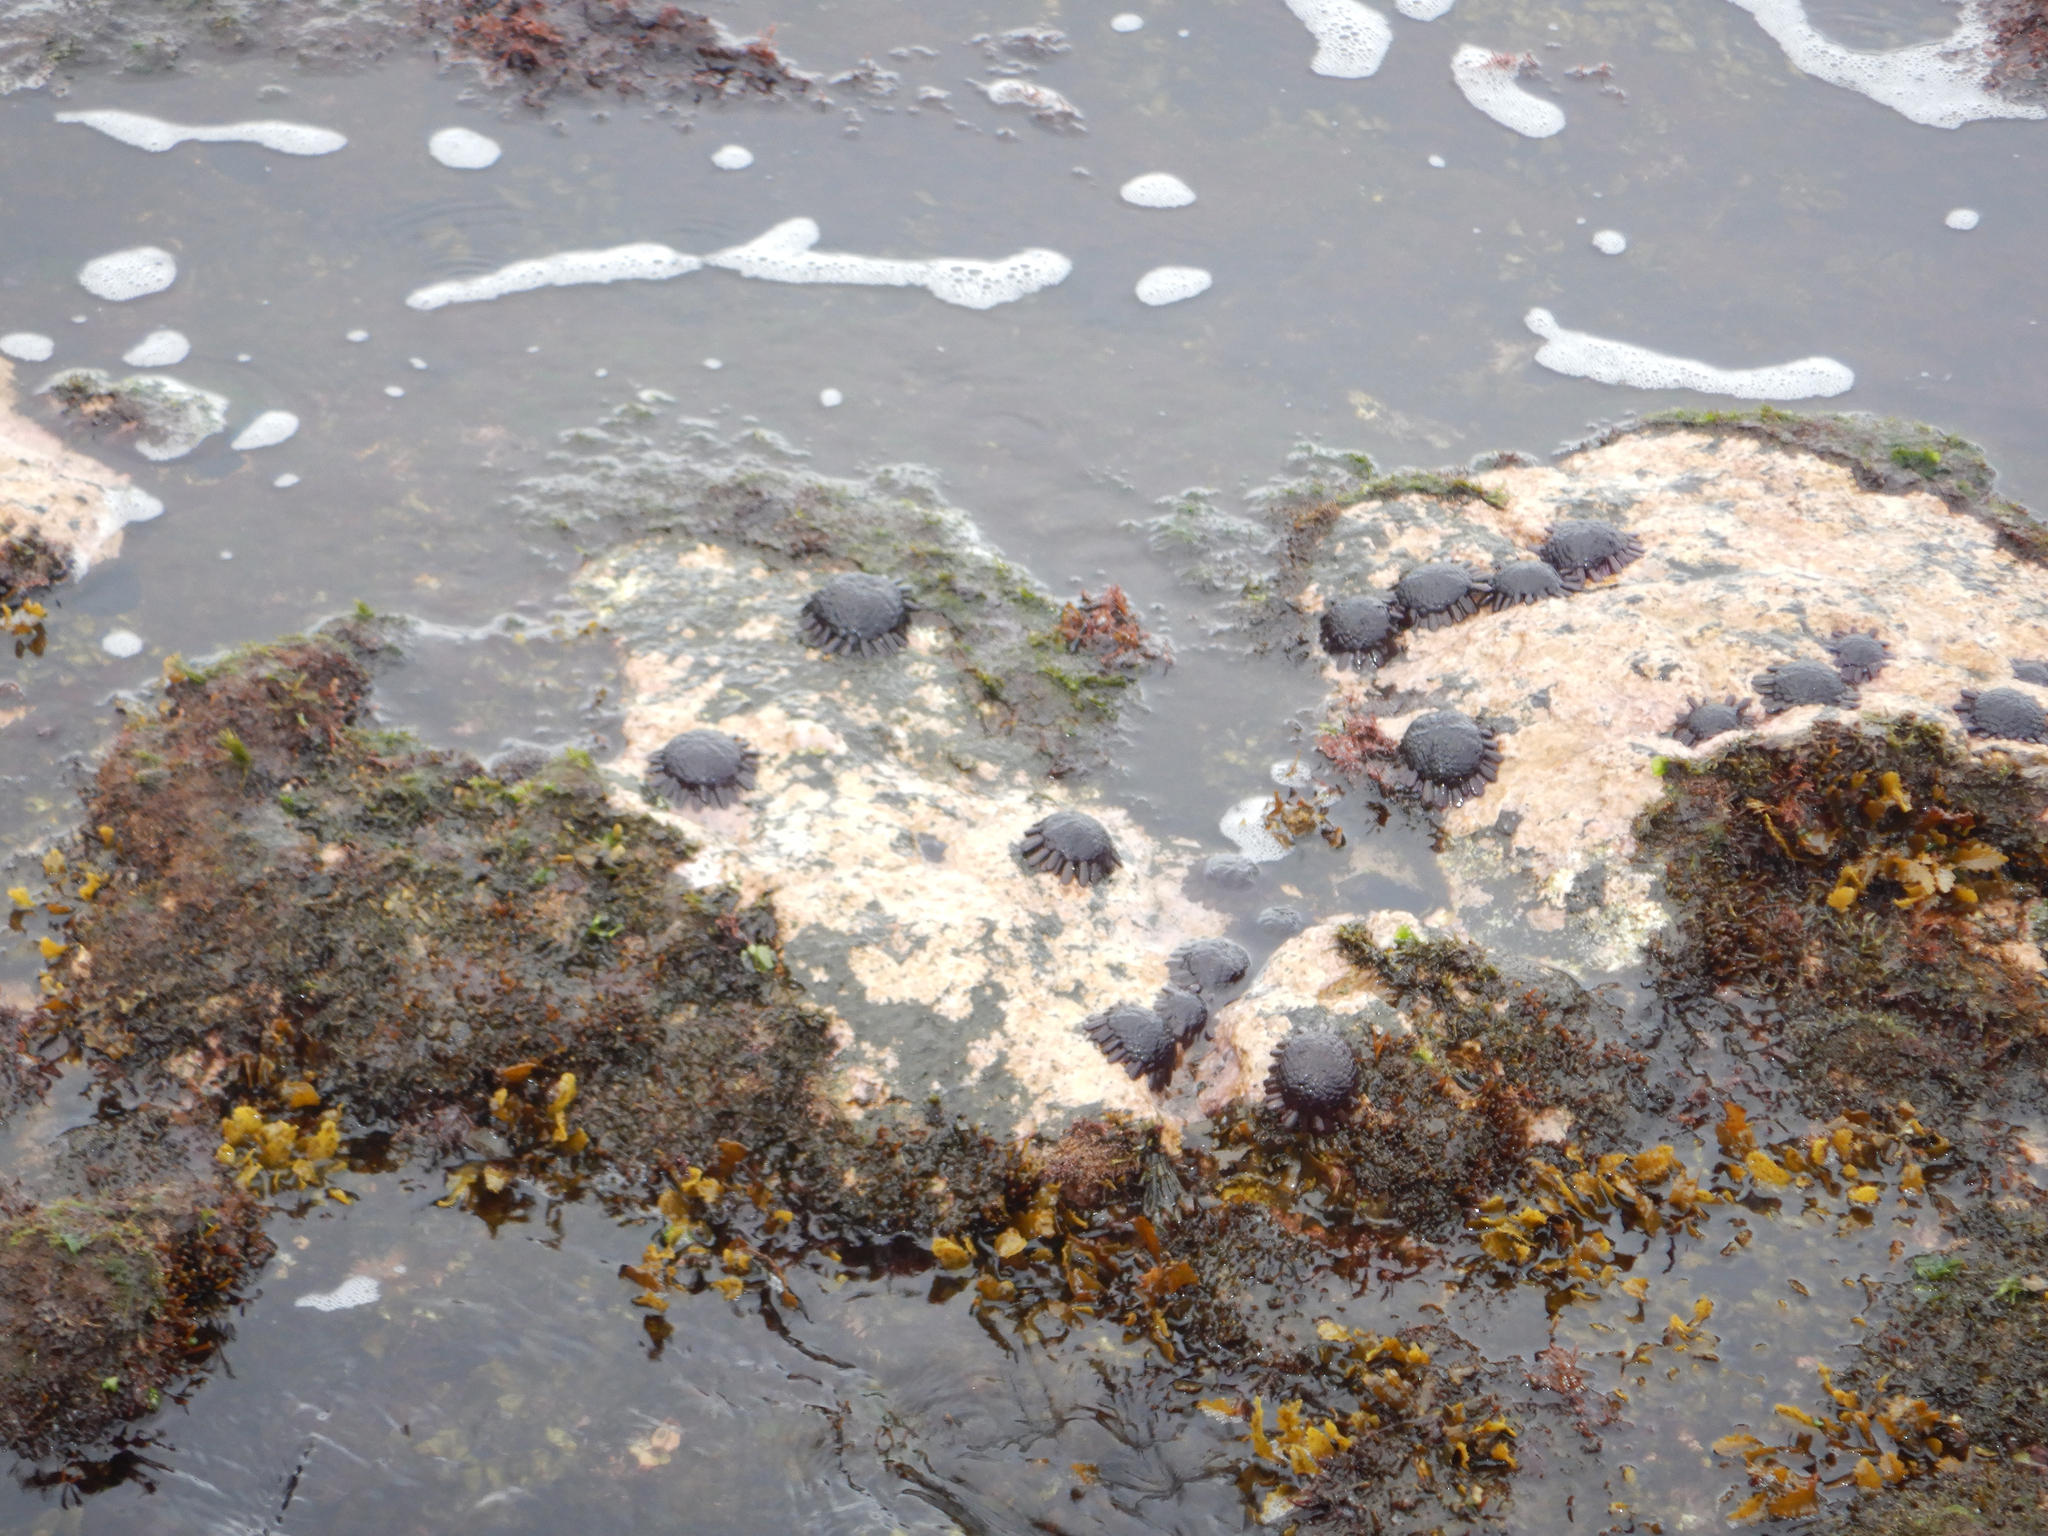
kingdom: Animalia
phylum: Echinodermata
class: Echinoidea
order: Camarodonta
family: Echinometridae
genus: Colobocentrotus
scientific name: Colobocentrotus atratus
